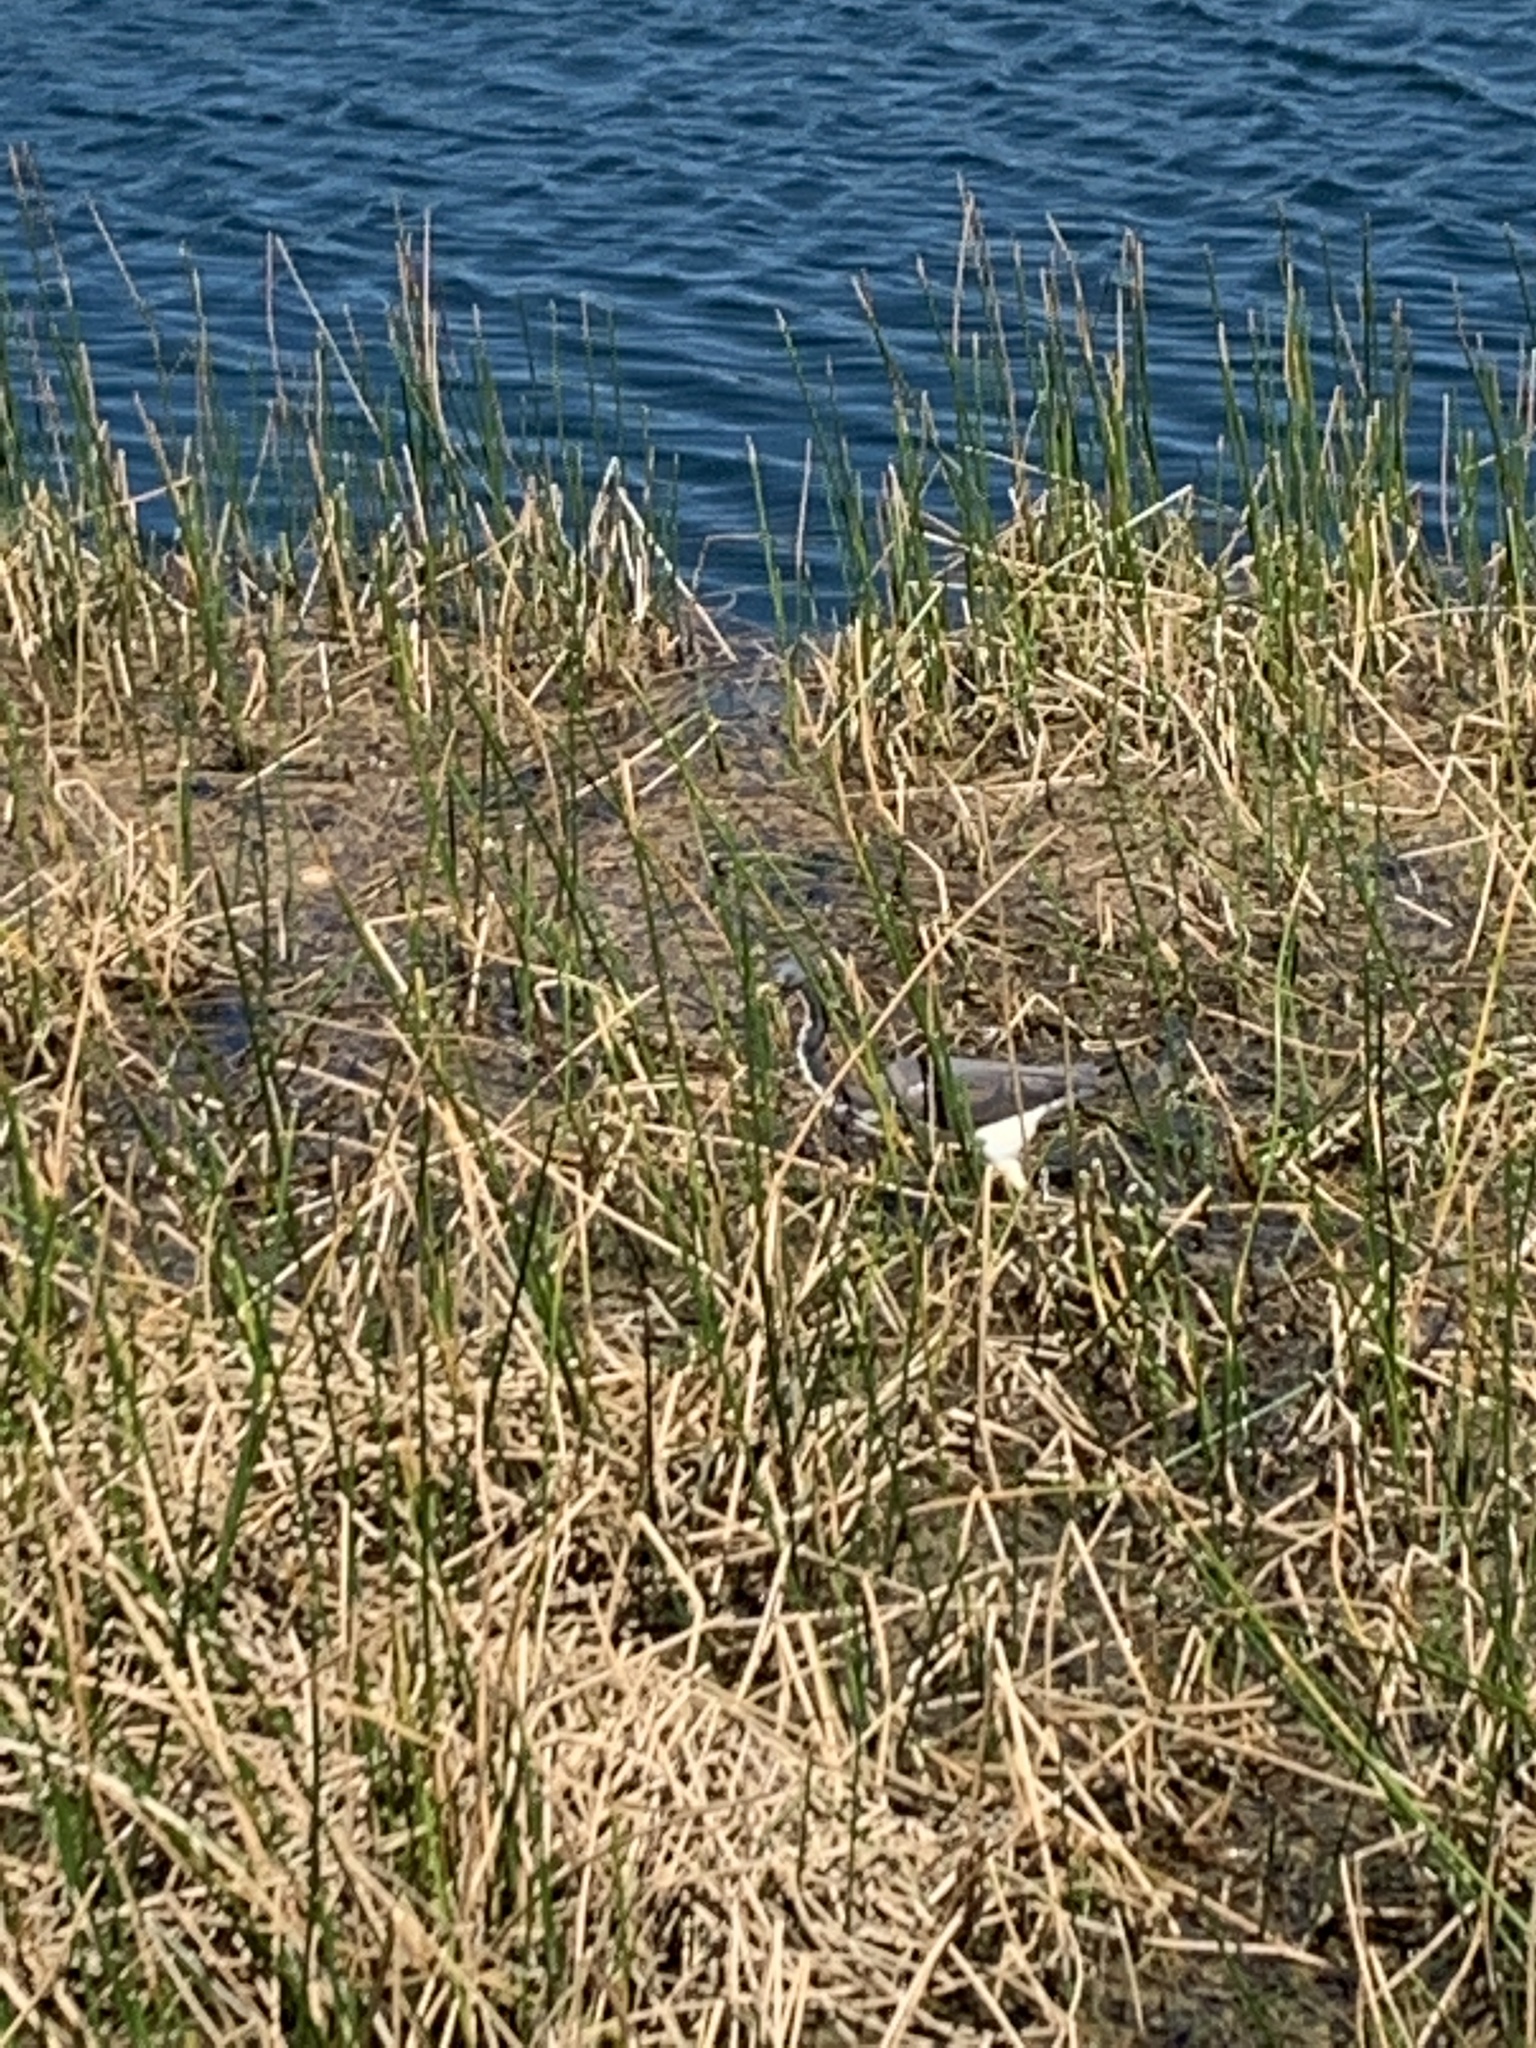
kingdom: Animalia
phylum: Chordata
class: Aves
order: Pelecaniformes
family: Ardeidae
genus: Egretta
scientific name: Egretta tricolor
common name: Tricolored heron
